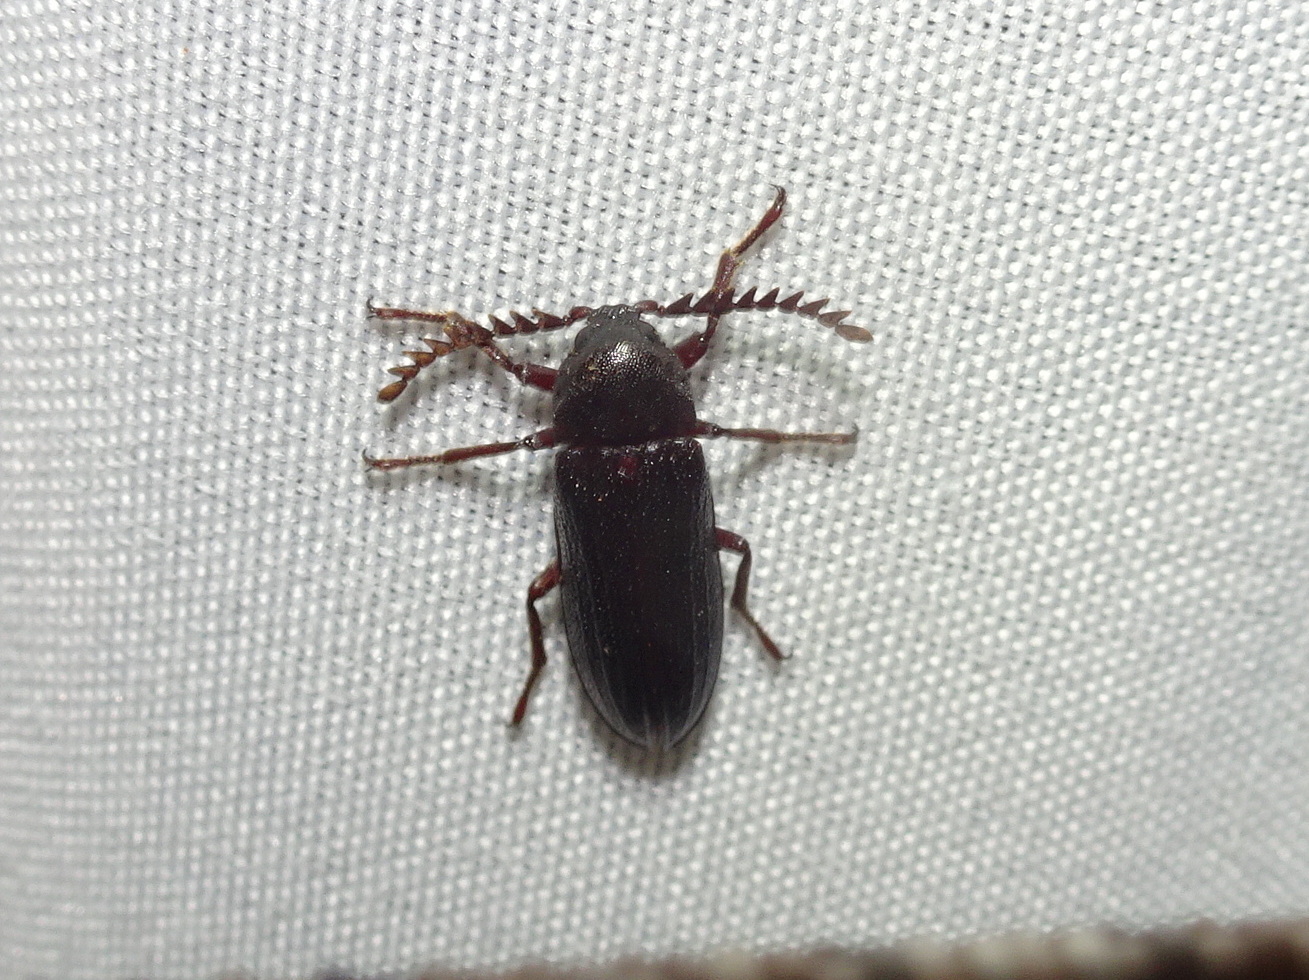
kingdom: Animalia
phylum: Arthropoda
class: Insecta
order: Coleoptera
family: Callirhipidae
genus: Zenoa
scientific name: Zenoa picea
